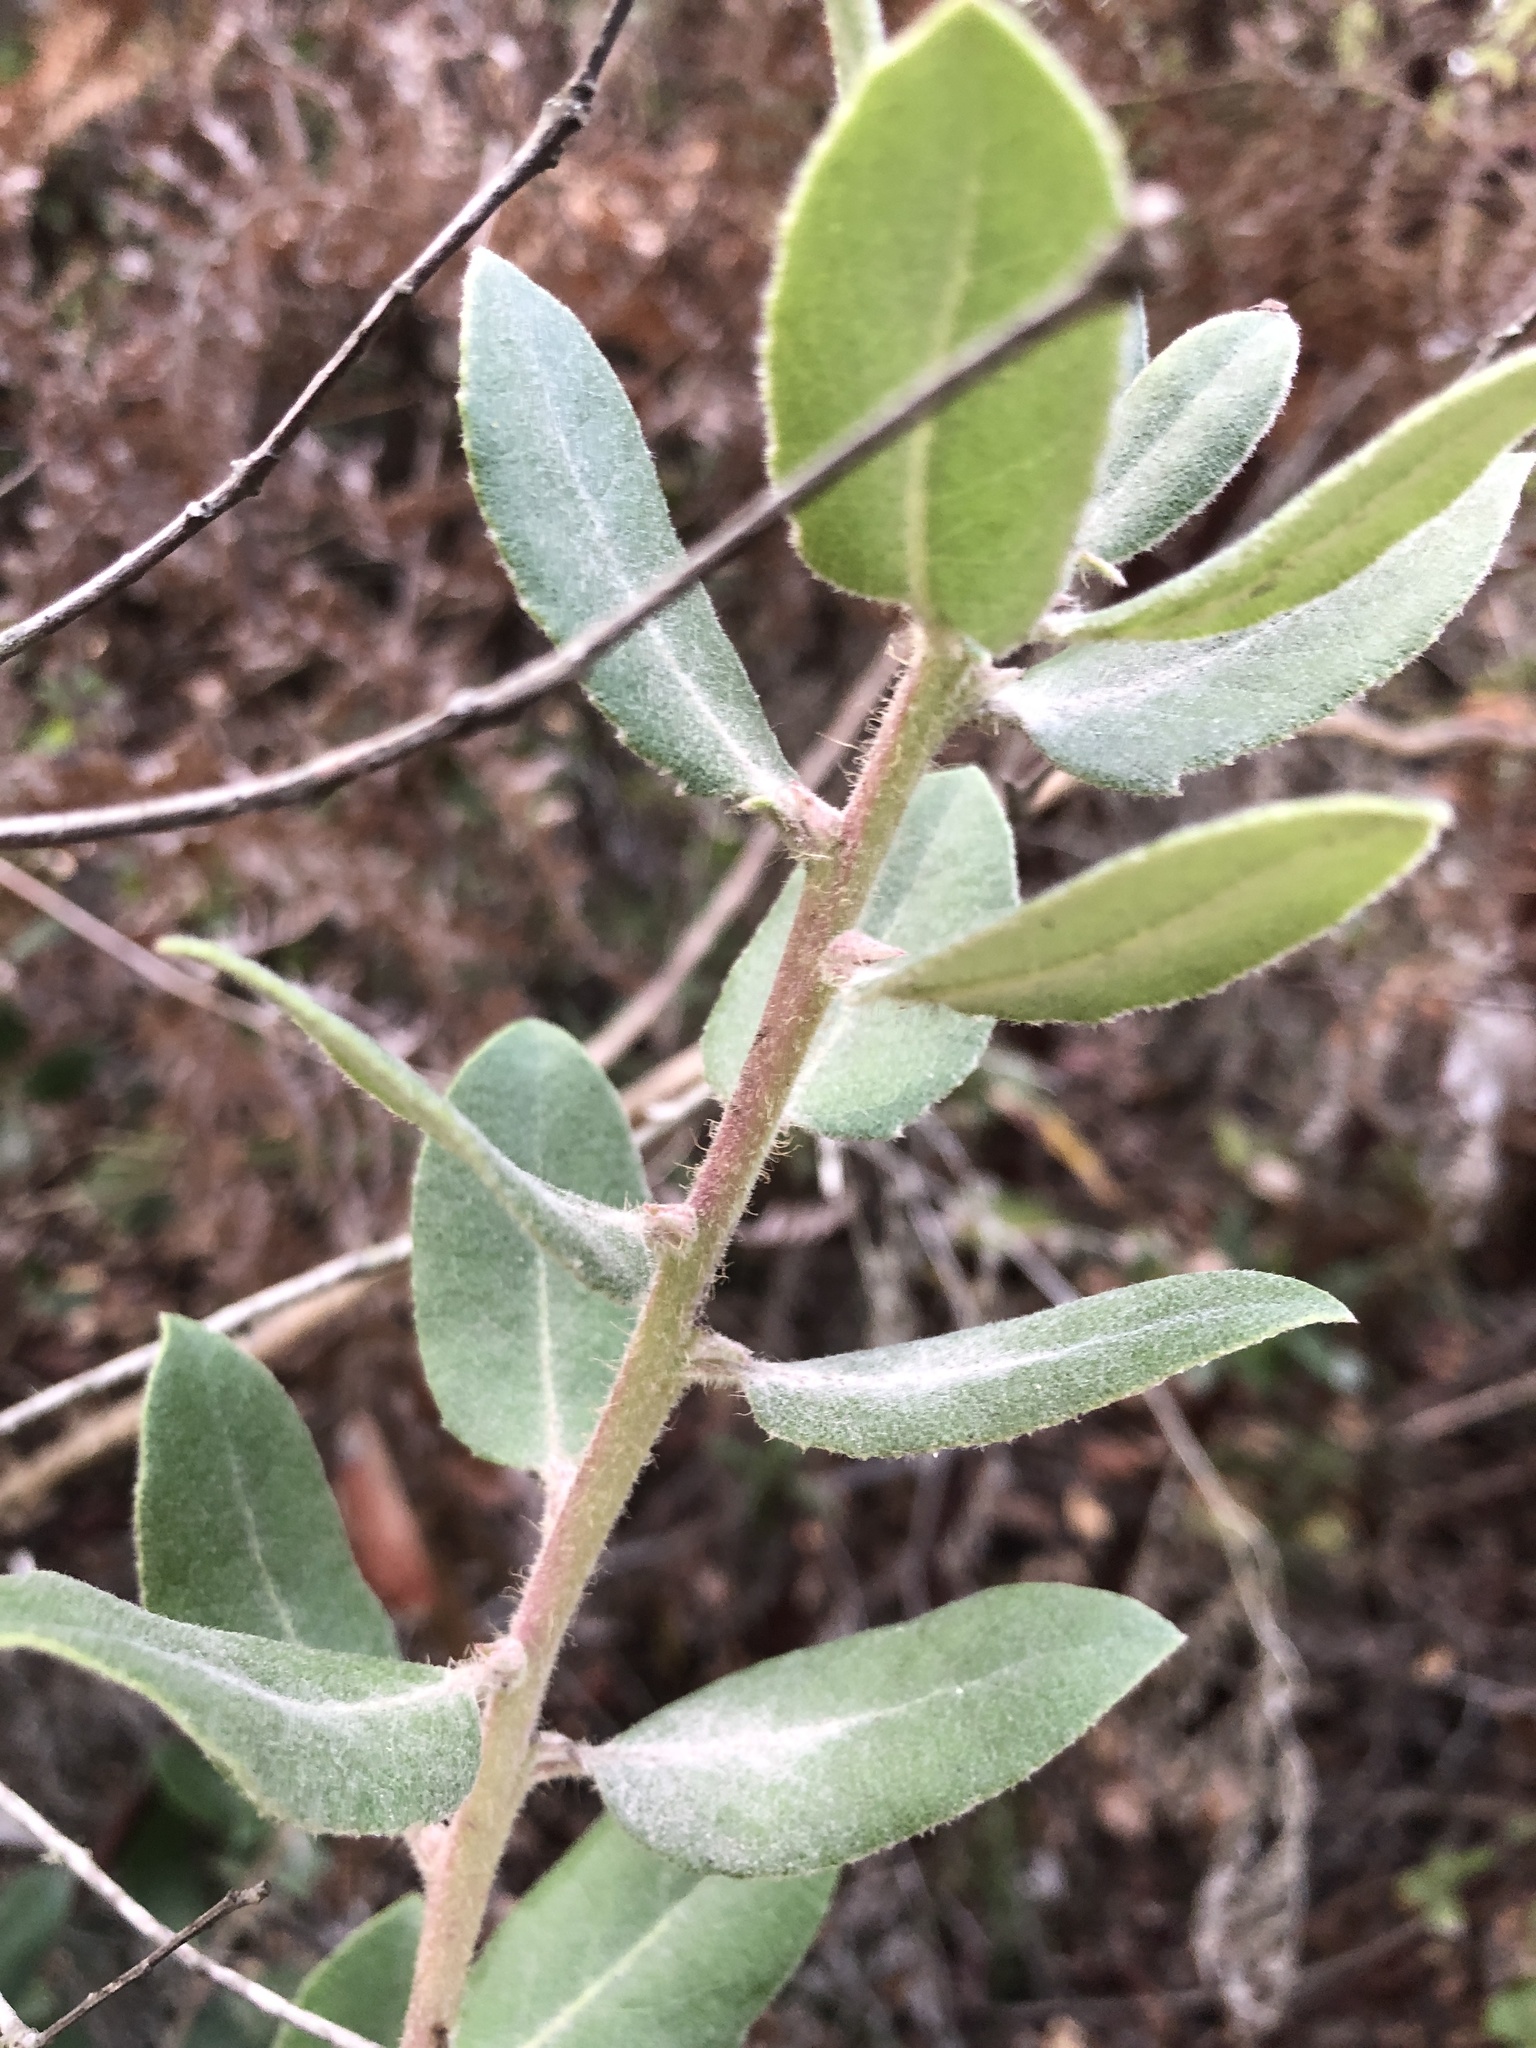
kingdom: Plantae
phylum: Tracheophyta
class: Magnoliopsida
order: Ericales
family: Ericaceae
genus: Arctostaphylos
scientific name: Arctostaphylos crustacea
